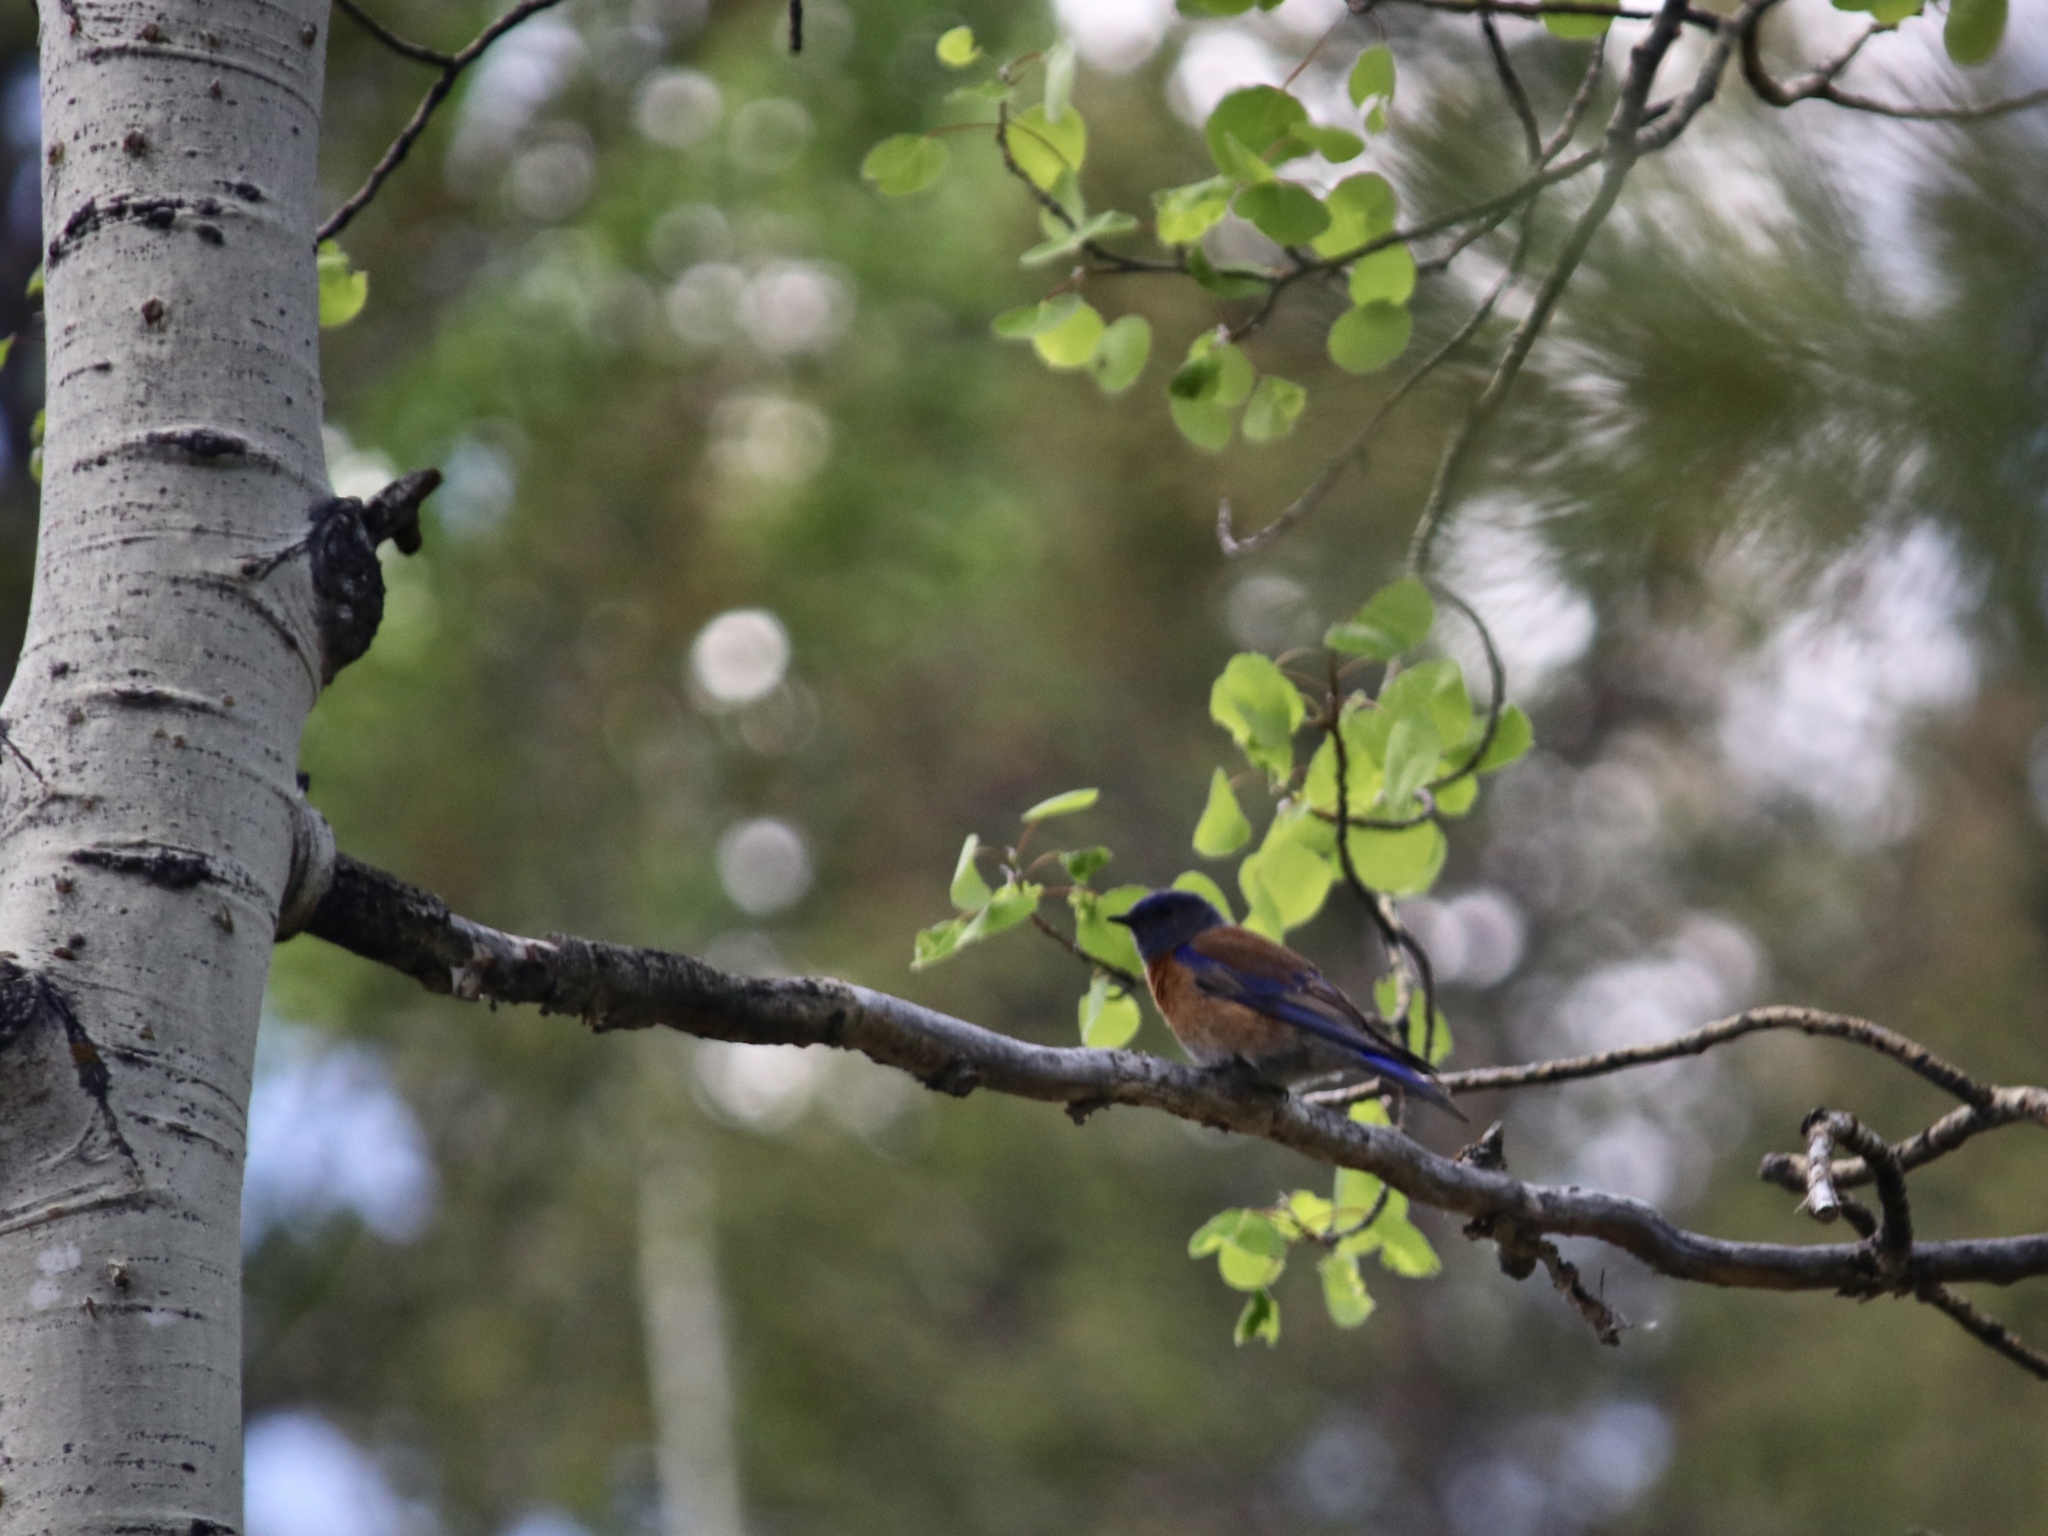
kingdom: Animalia
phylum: Chordata
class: Aves
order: Passeriformes
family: Turdidae
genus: Sialia
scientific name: Sialia mexicana
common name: Western bluebird
